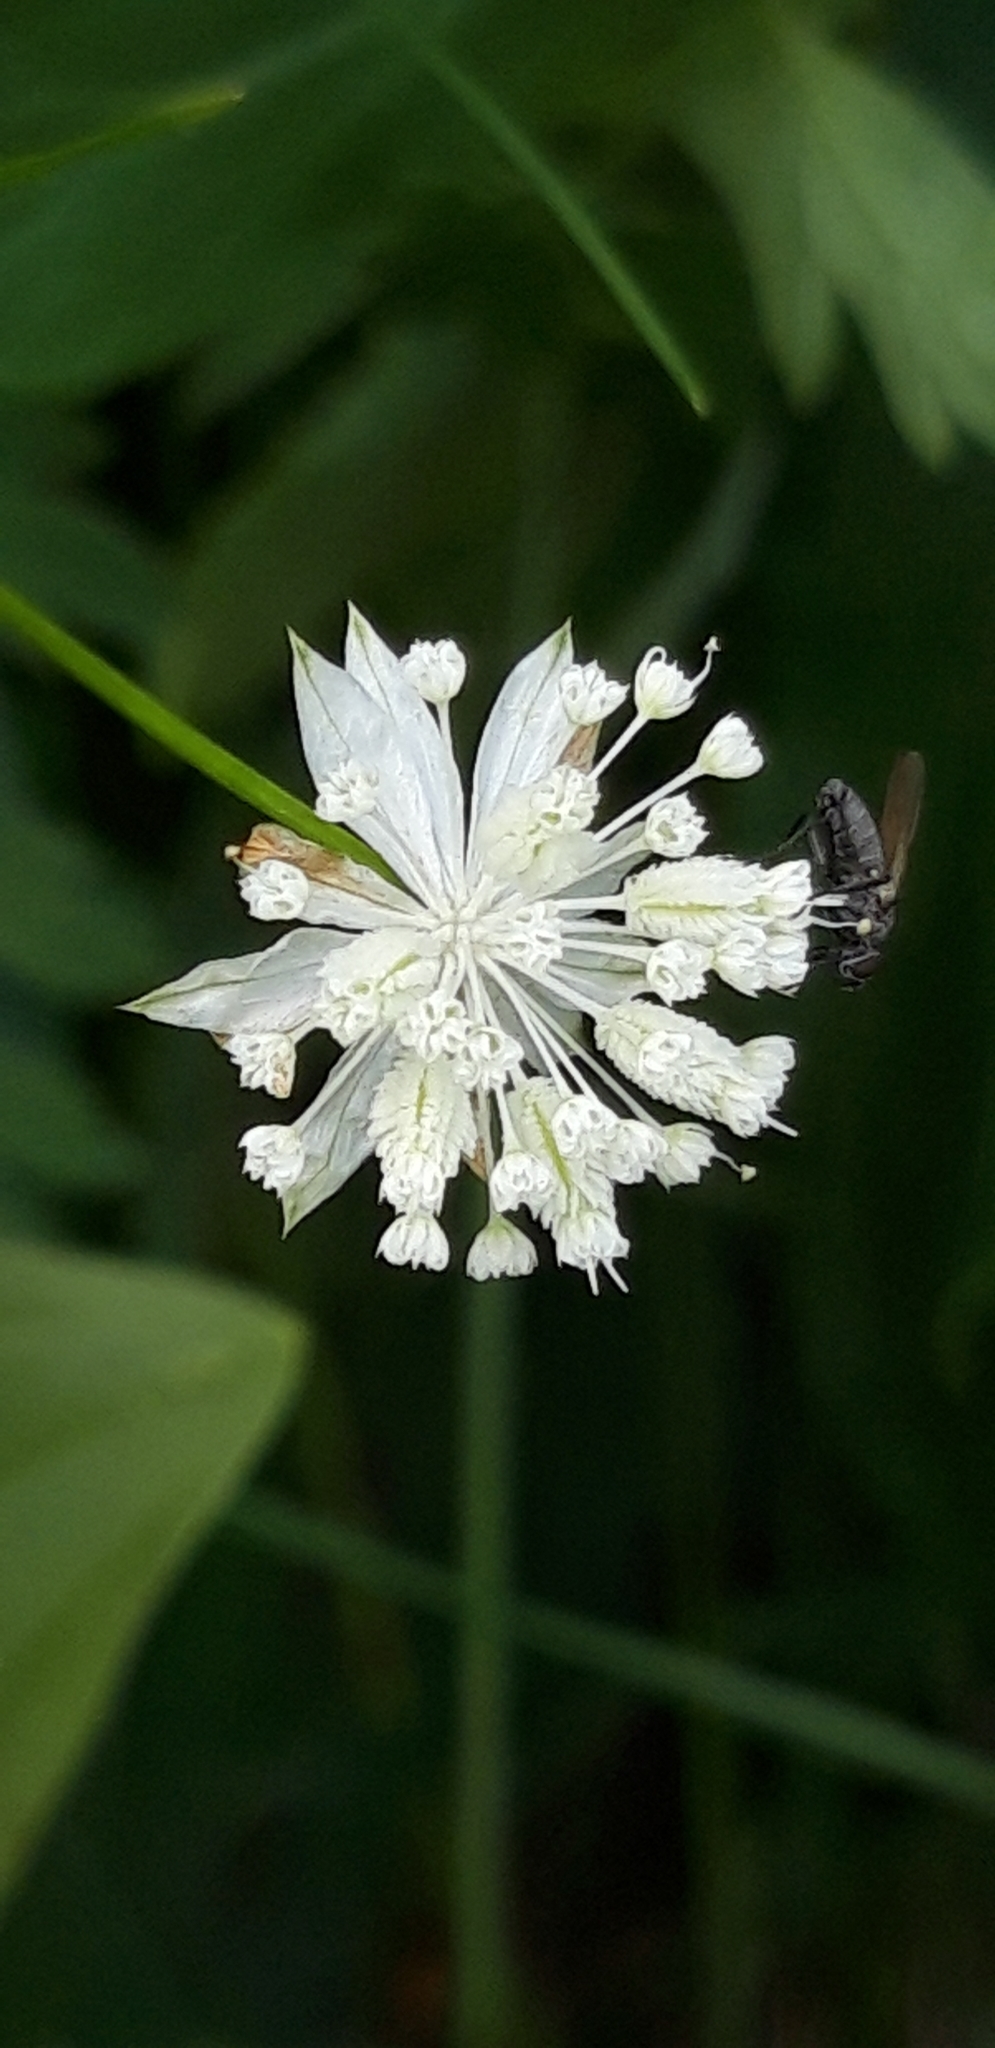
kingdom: Plantae
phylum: Tracheophyta
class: Magnoliopsida
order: Apiales
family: Apiaceae
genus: Astrantia
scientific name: Astrantia minor
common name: Lesser masterwort
